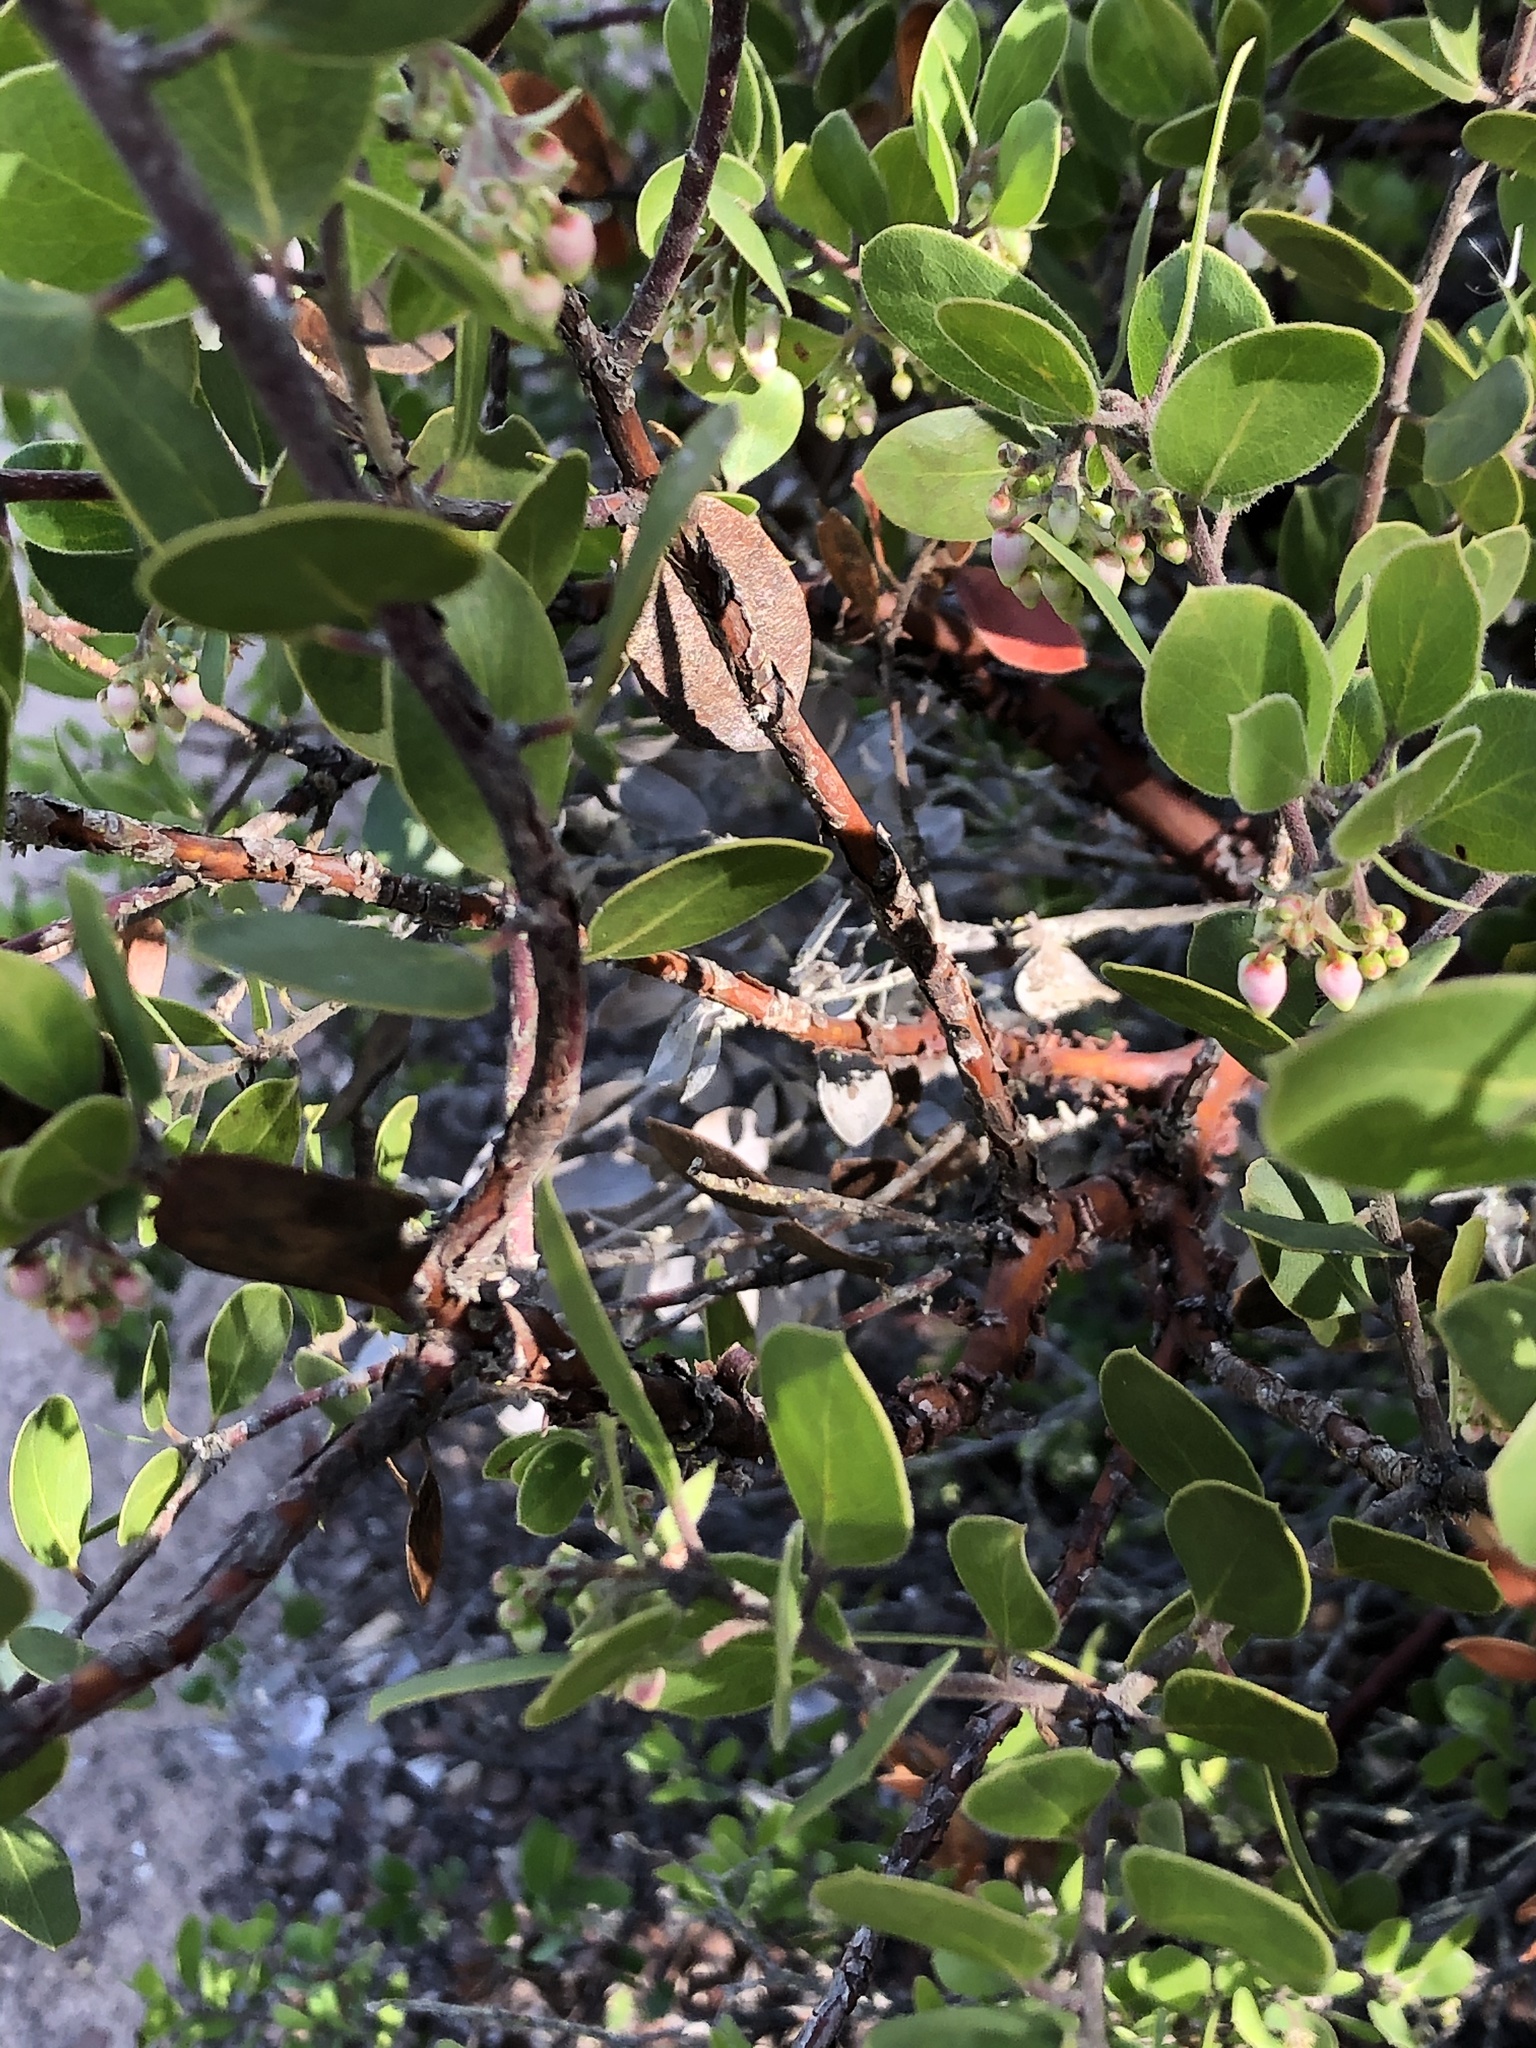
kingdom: Plantae
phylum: Tracheophyta
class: Magnoliopsida
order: Ericales
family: Ericaceae
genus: Arctostaphylos
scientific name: Arctostaphylos rudis
